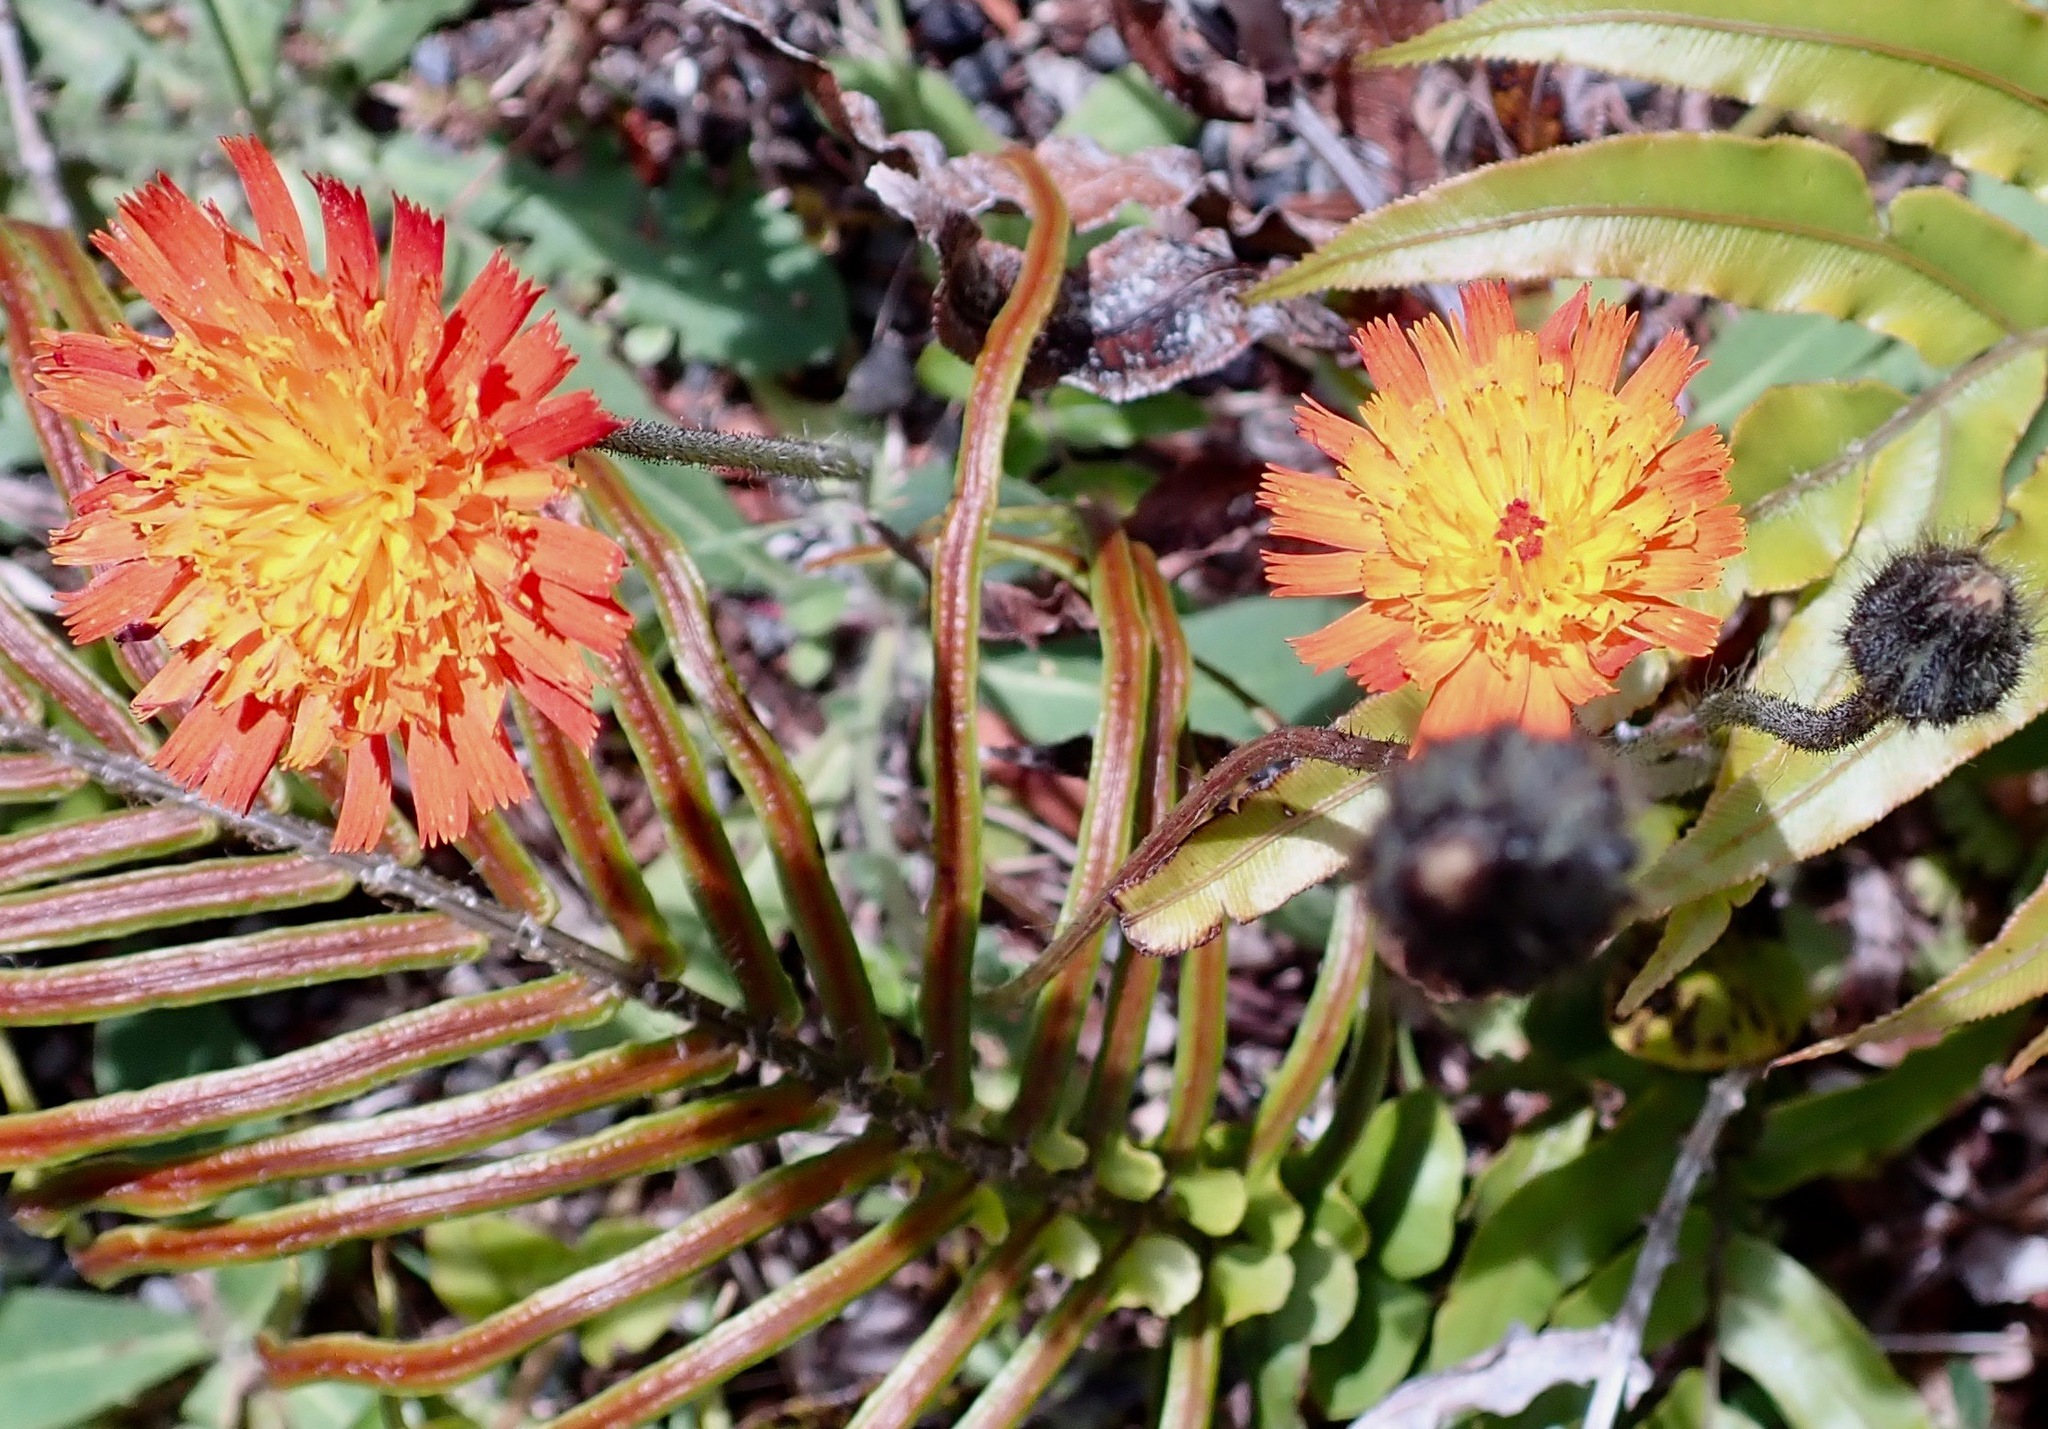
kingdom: Plantae
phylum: Tracheophyta
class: Magnoliopsida
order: Asterales
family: Asteraceae
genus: Pilosella
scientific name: Pilosella aurantiaca
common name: Fox-and-cubs
